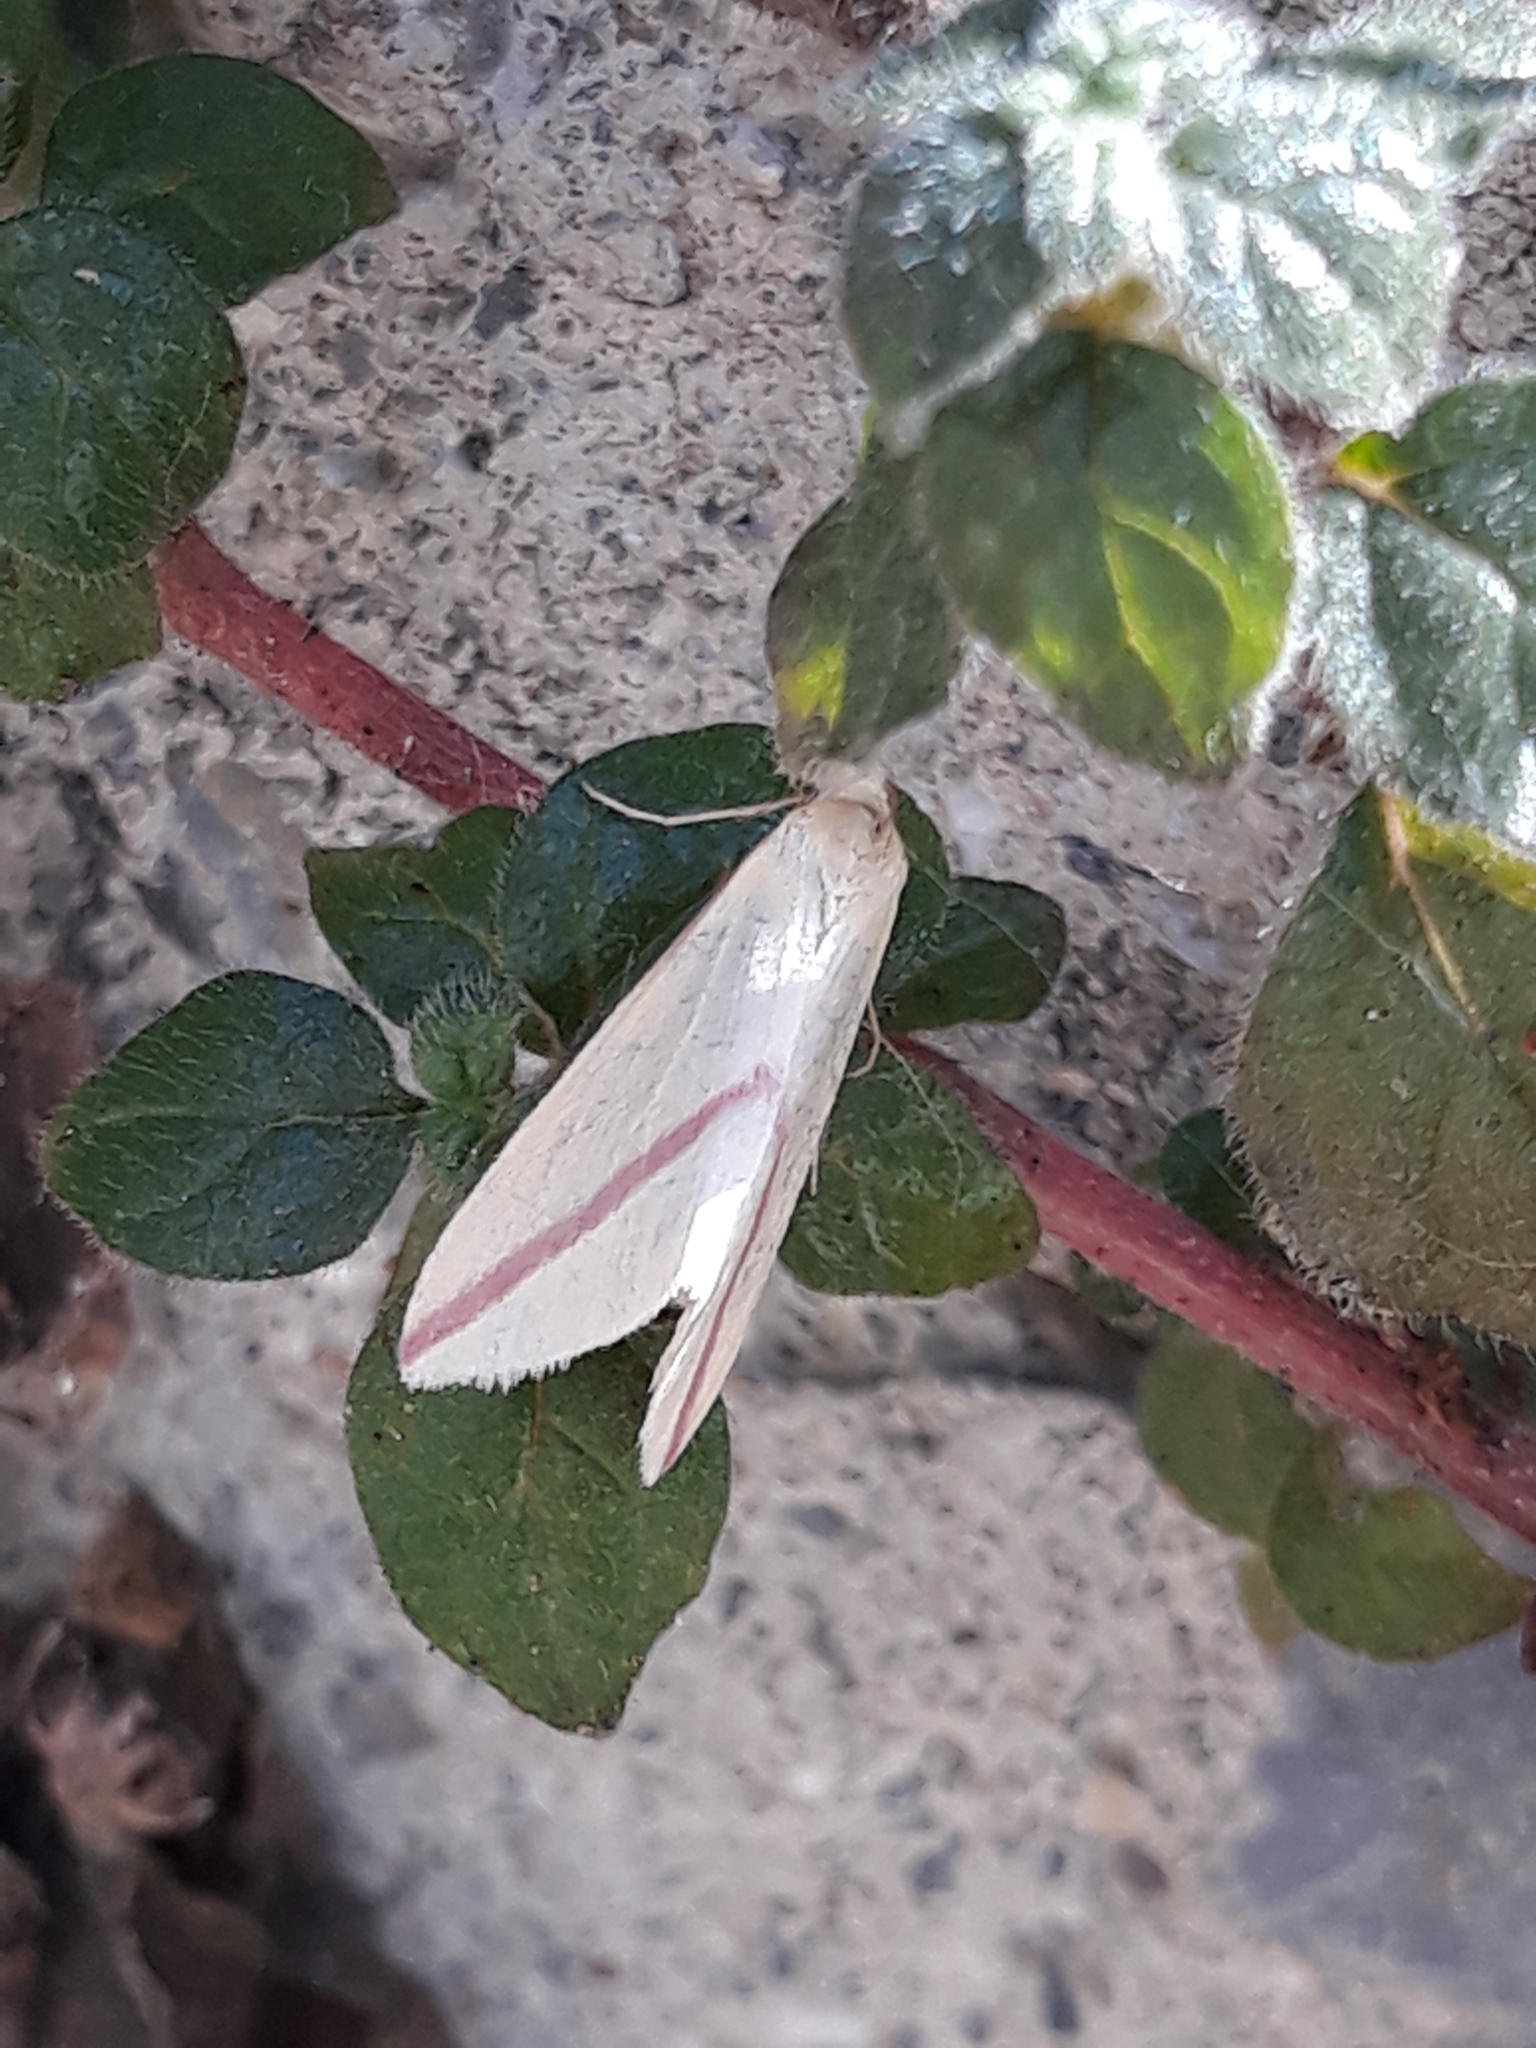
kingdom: Animalia
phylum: Arthropoda
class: Insecta
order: Lepidoptera
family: Geometridae
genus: Rhodometra
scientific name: Rhodometra sacraria
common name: Vestal
